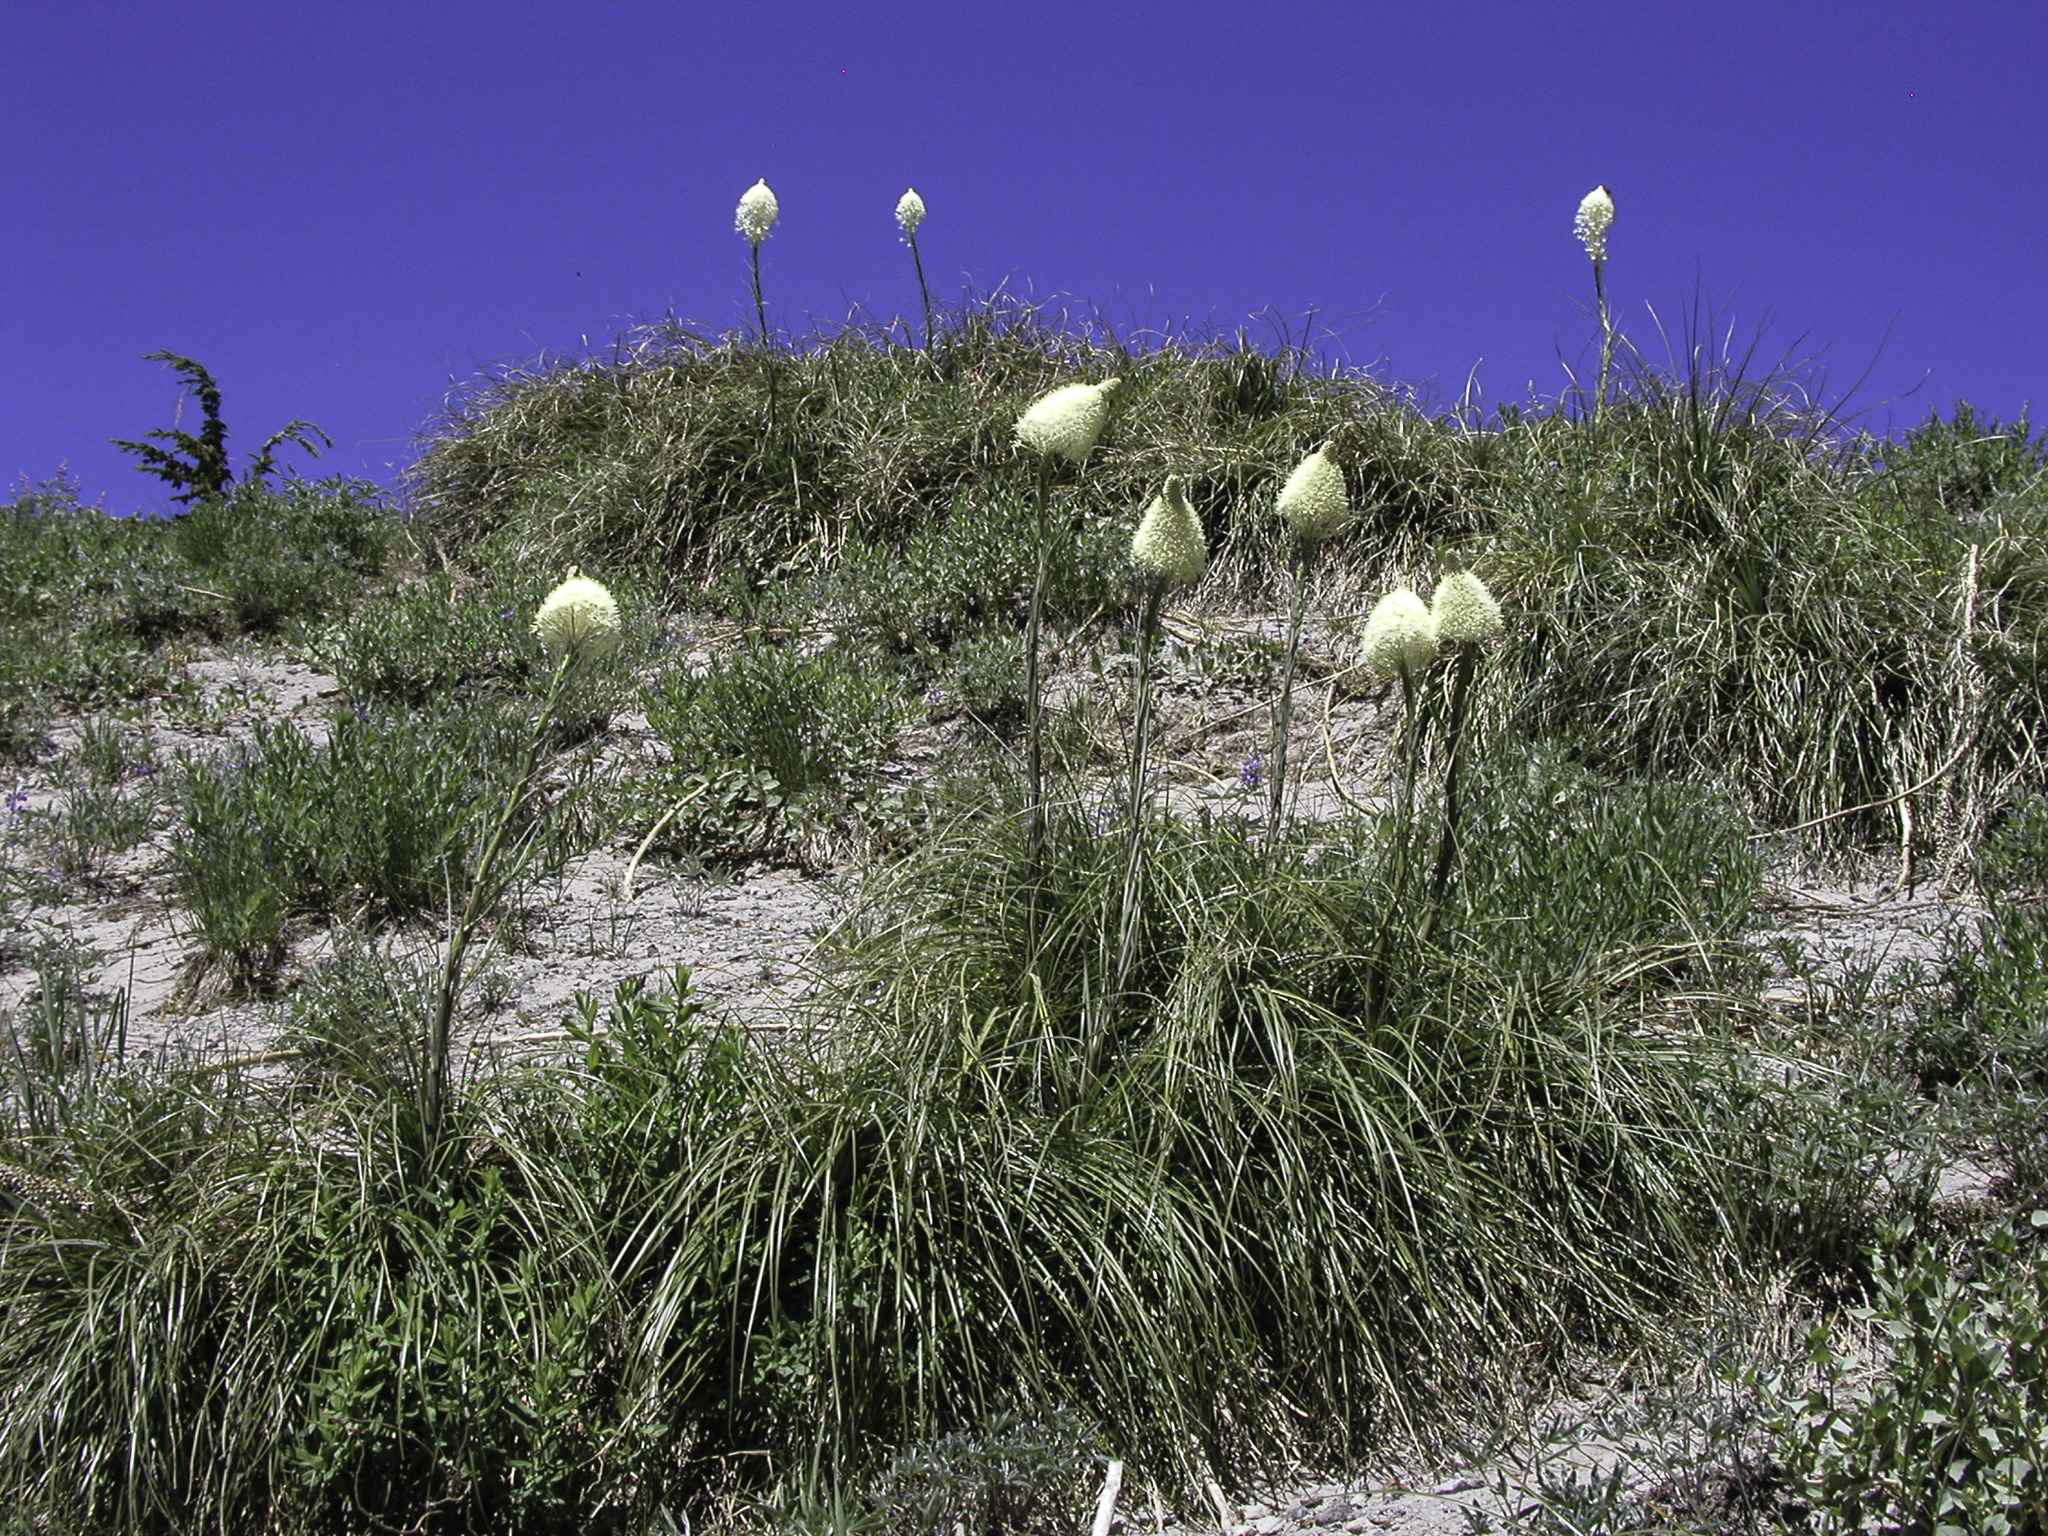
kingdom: Plantae
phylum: Tracheophyta
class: Liliopsida
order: Liliales
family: Melanthiaceae
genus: Xerophyllum
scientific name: Xerophyllum tenax
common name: Bear-grass
